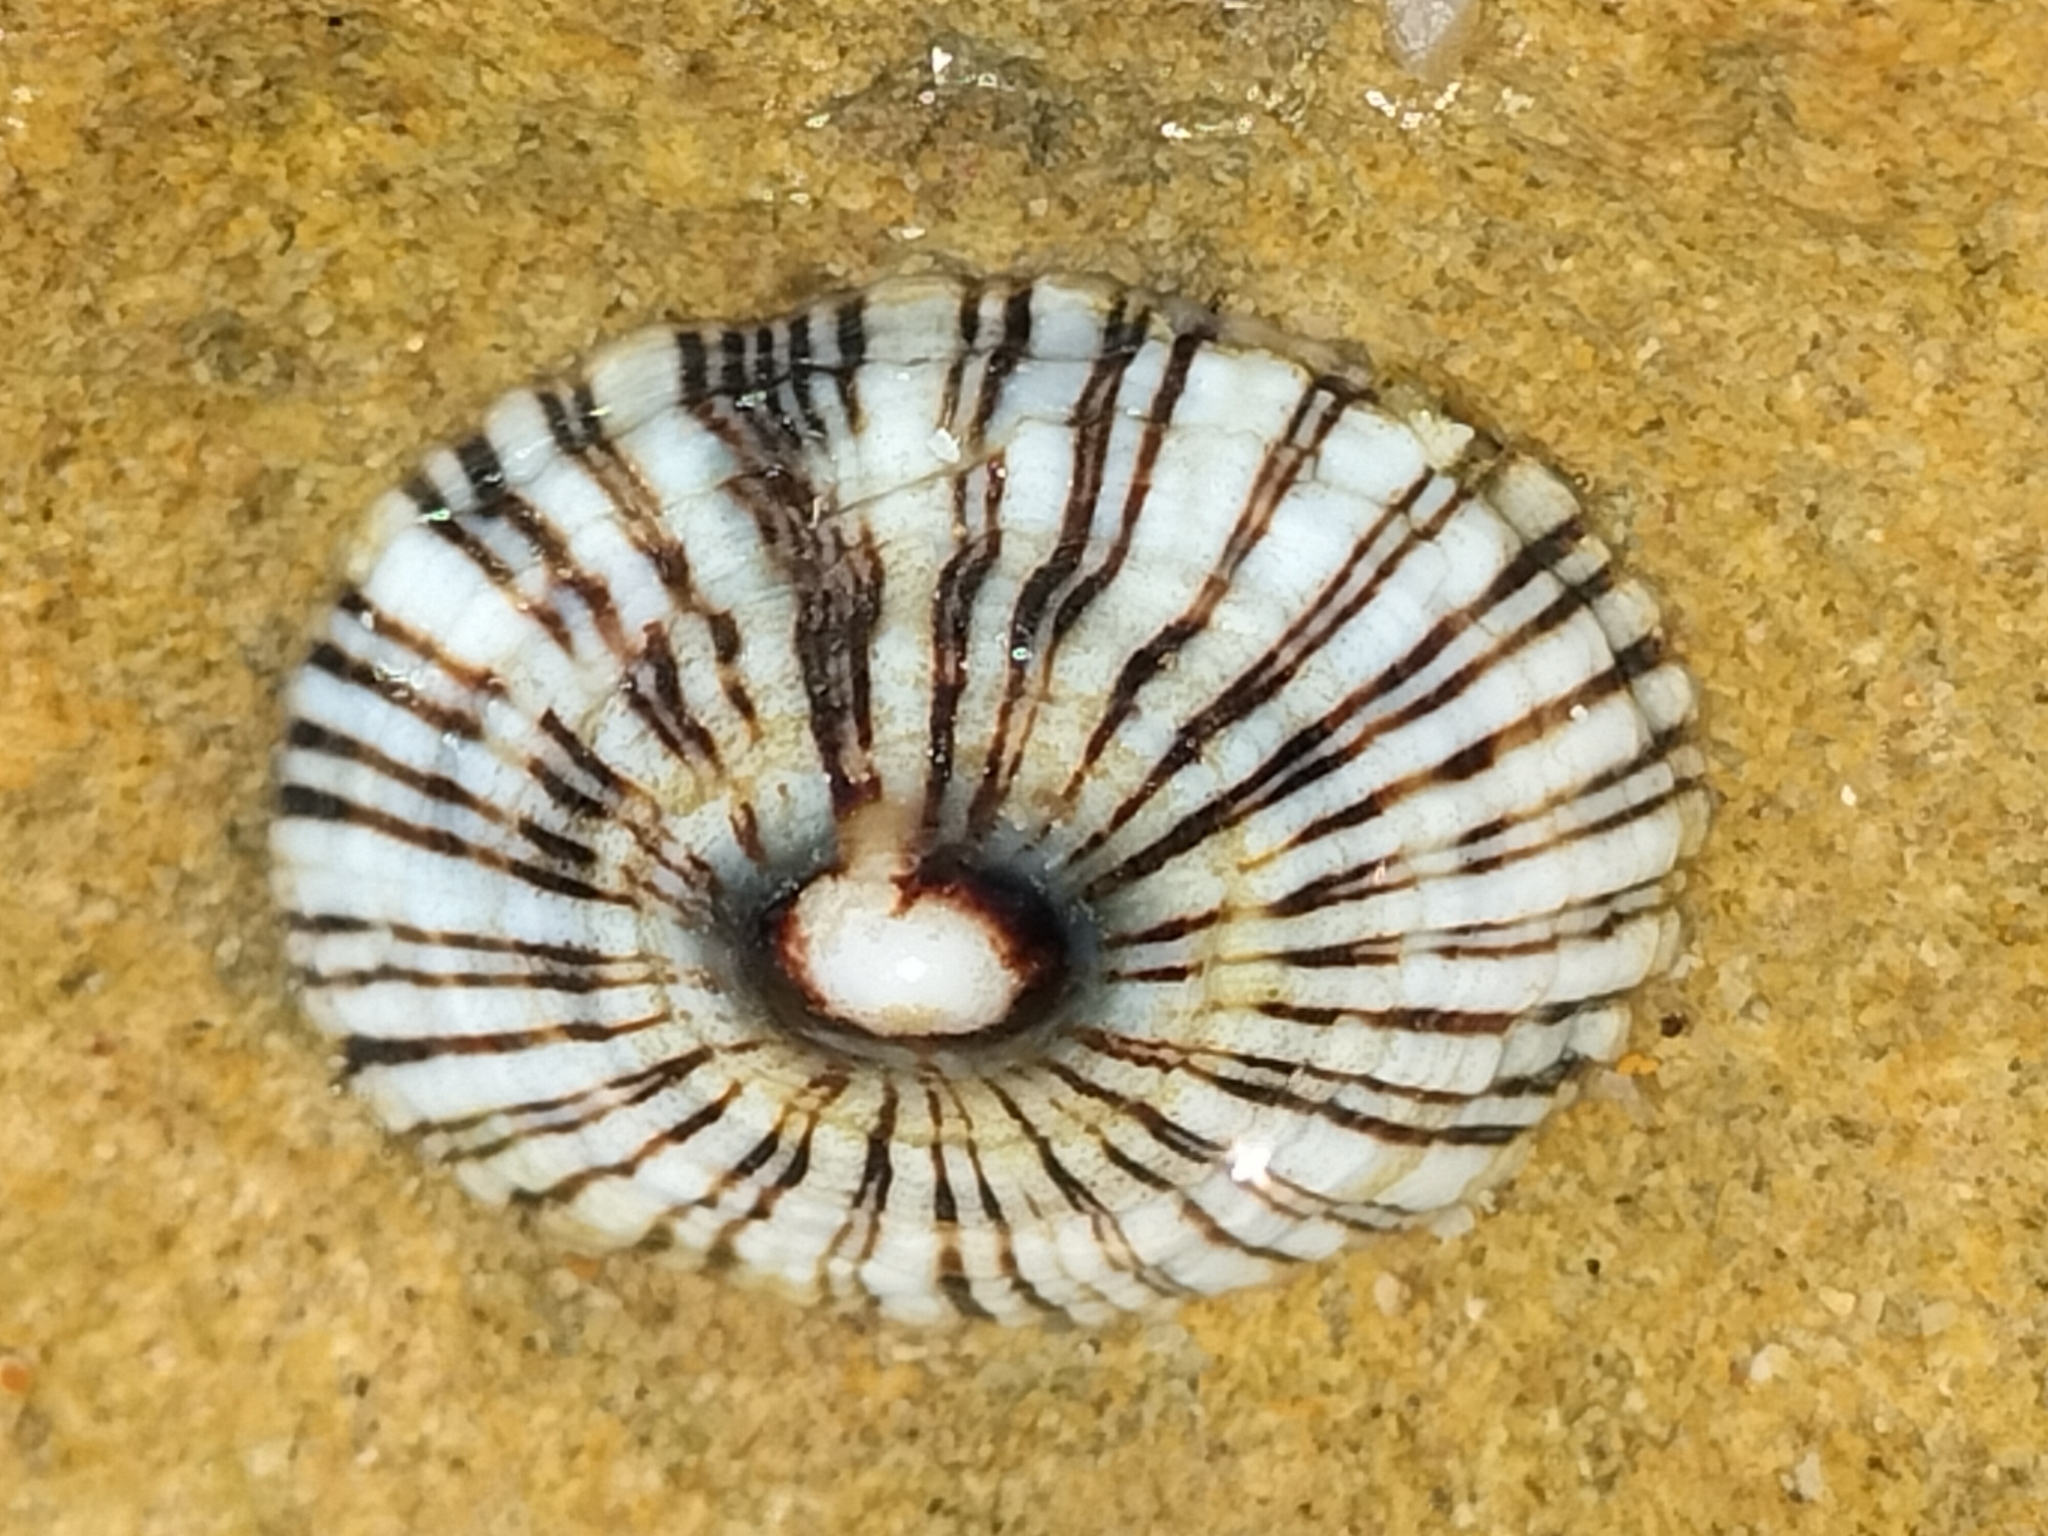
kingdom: Animalia
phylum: Mollusca
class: Gastropoda
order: Siphonariida
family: Siphonariidae
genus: Siphonaria
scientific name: Siphonaria funiculata
